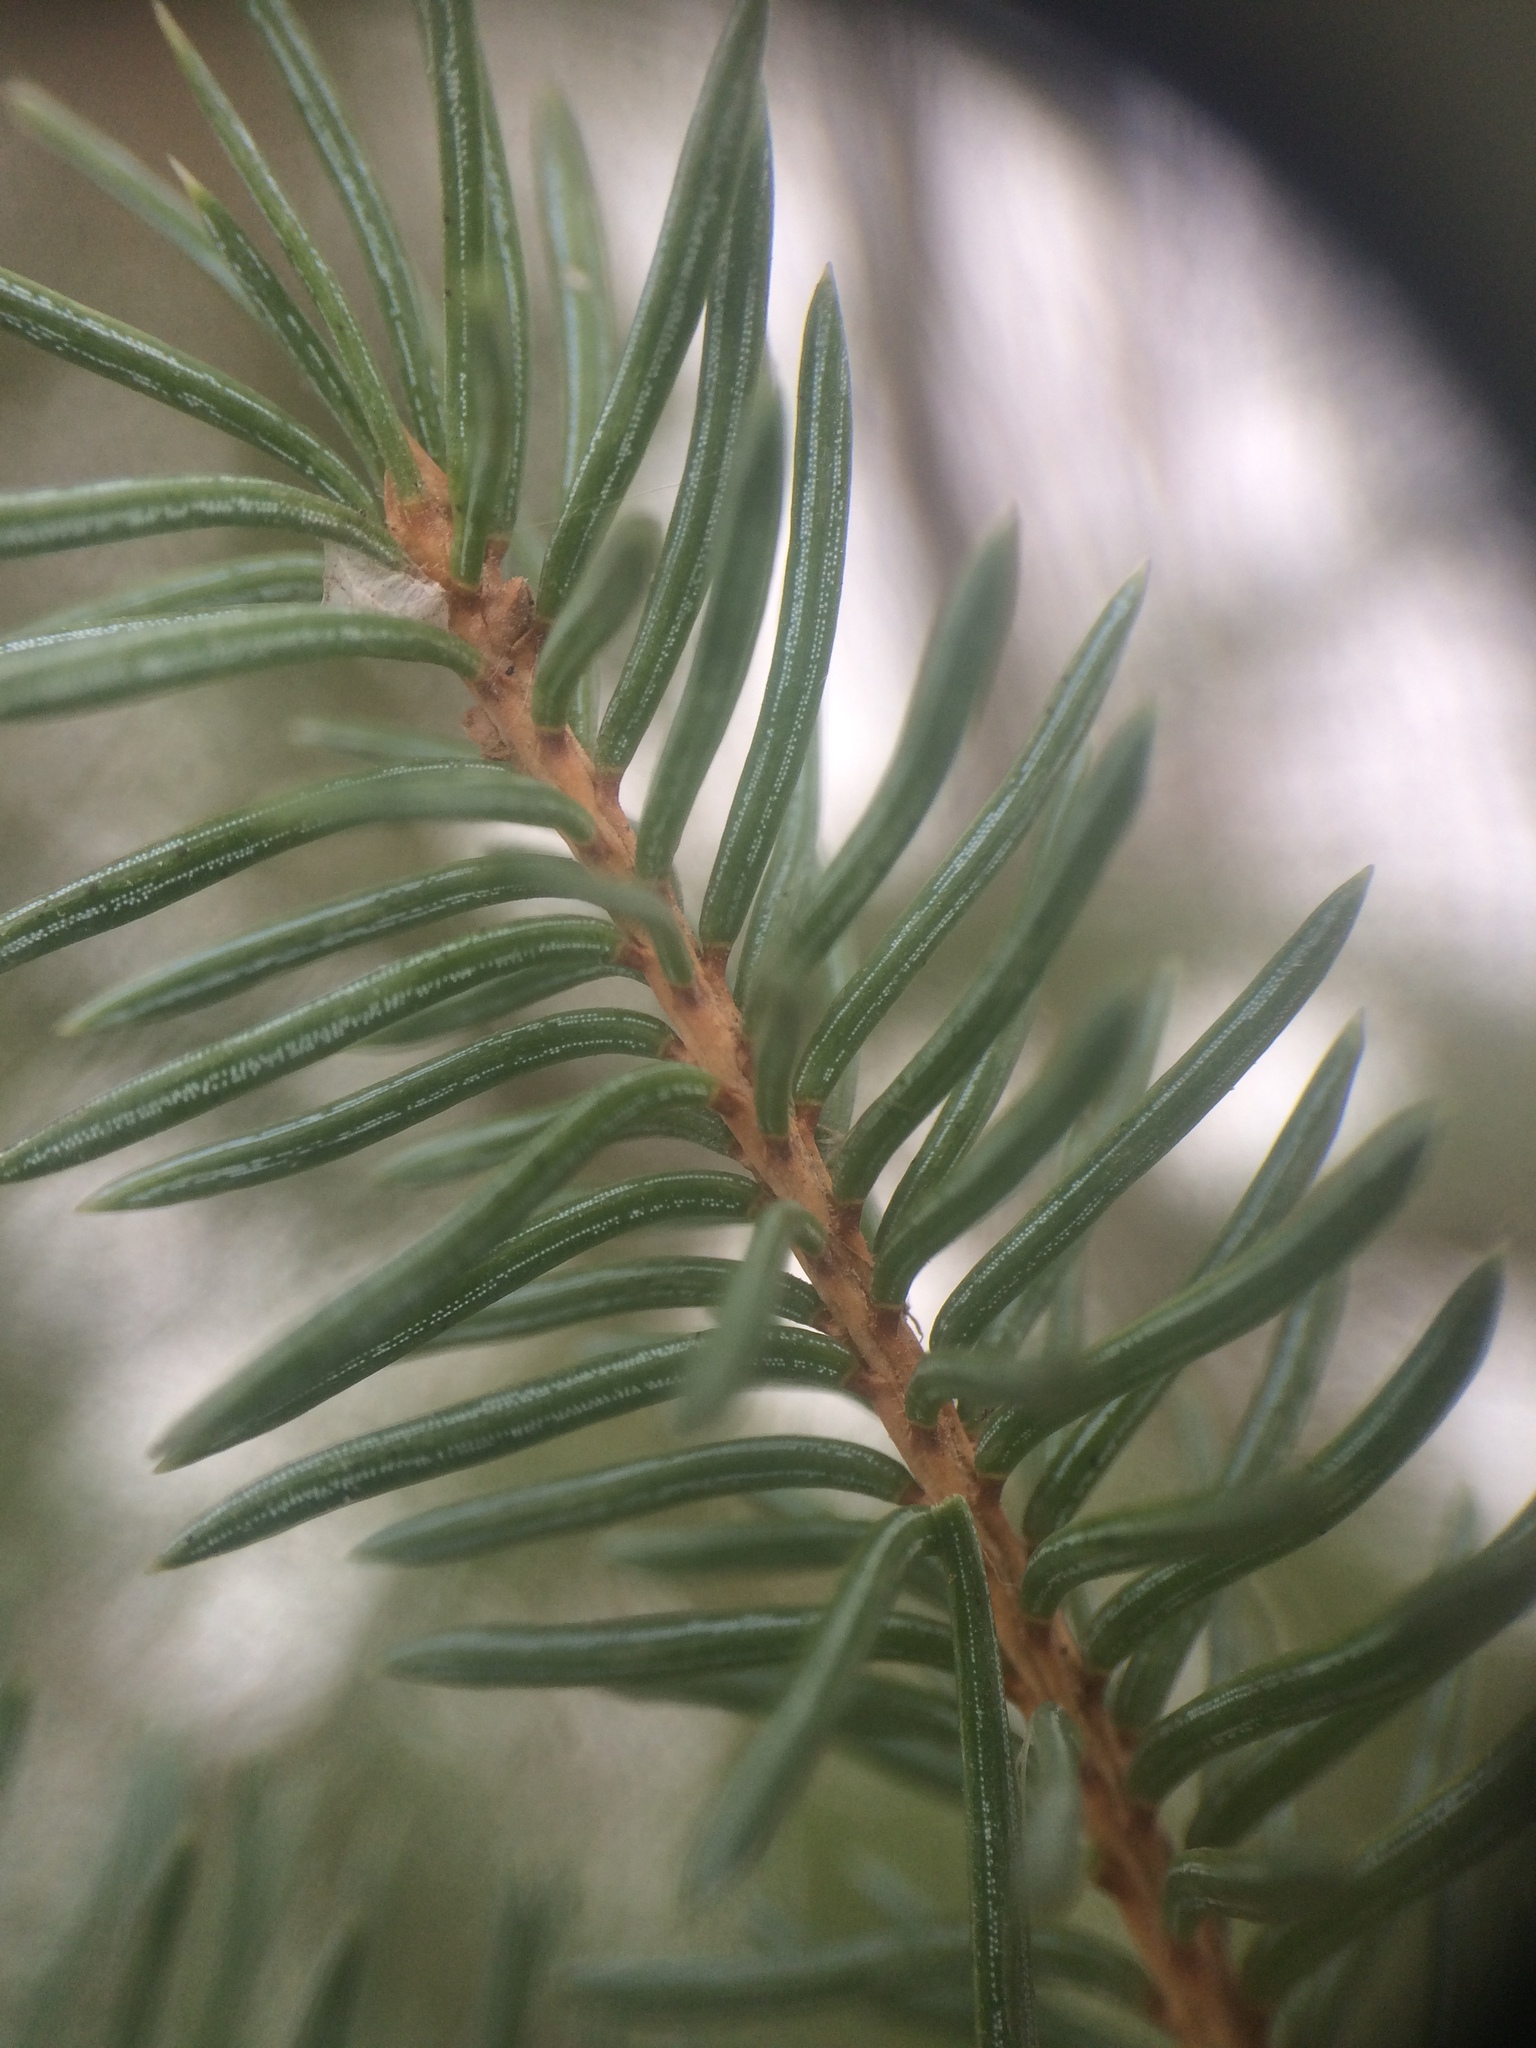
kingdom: Plantae
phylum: Tracheophyta
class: Pinopsida
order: Pinales
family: Pinaceae
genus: Picea
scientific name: Picea glauca
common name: White spruce
